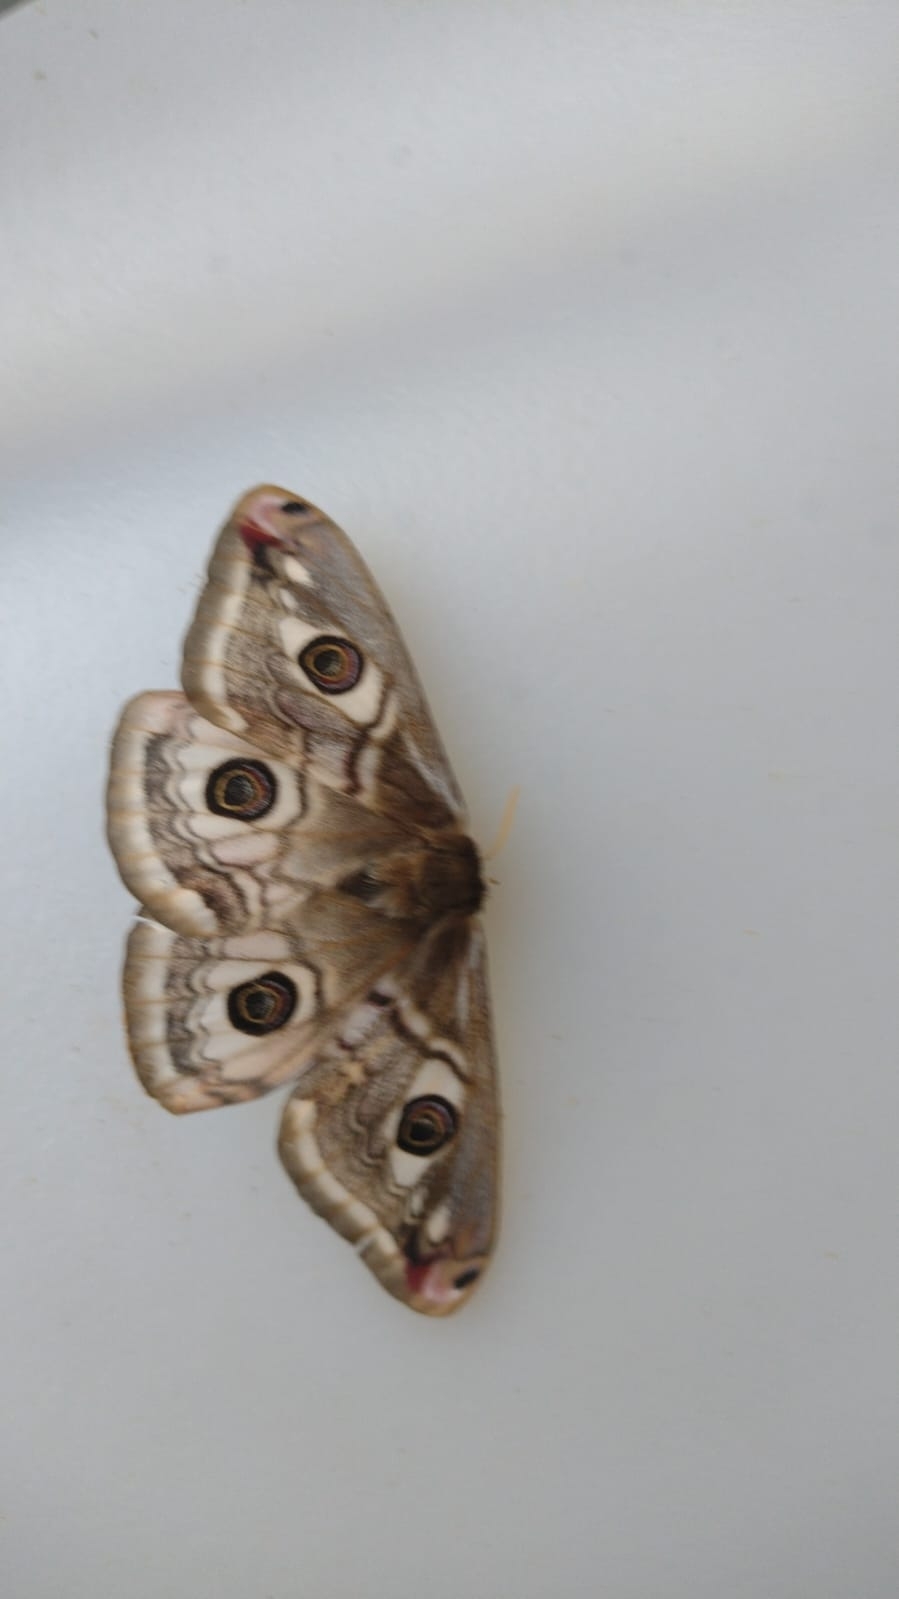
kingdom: Animalia
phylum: Arthropoda
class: Insecta
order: Lepidoptera
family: Saturniidae
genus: Saturnia
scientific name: Saturnia pavoniella
